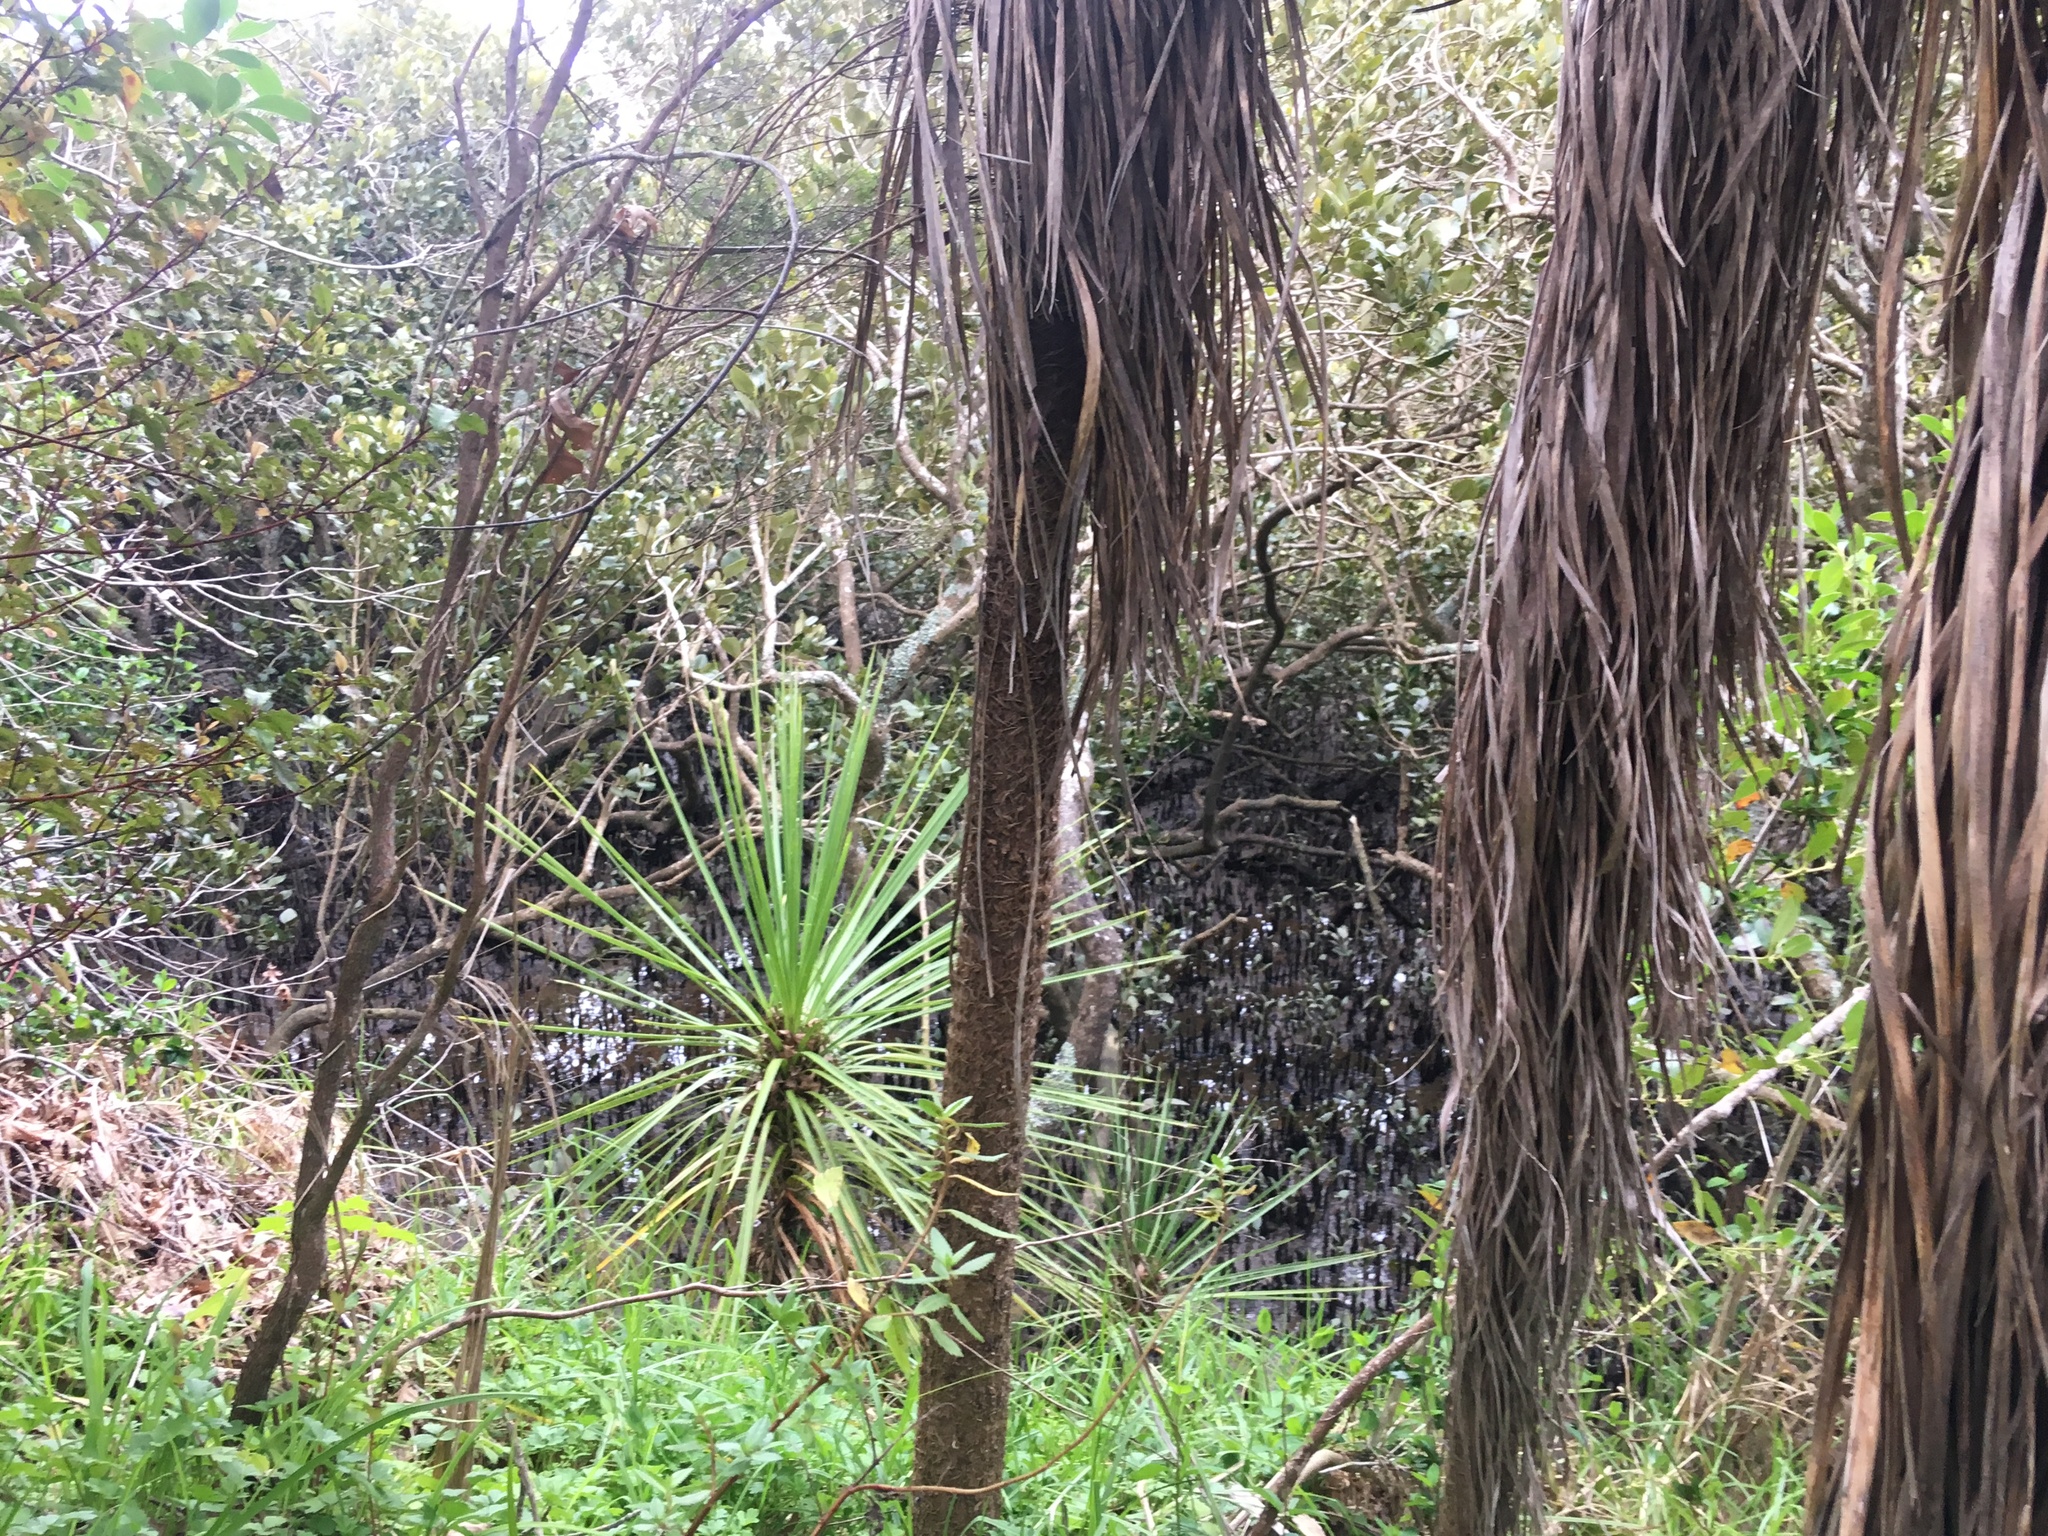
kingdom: Plantae
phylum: Tracheophyta
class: Liliopsida
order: Asparagales
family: Asparagaceae
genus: Cordyline
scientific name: Cordyline australis
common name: Cabbage-palm
